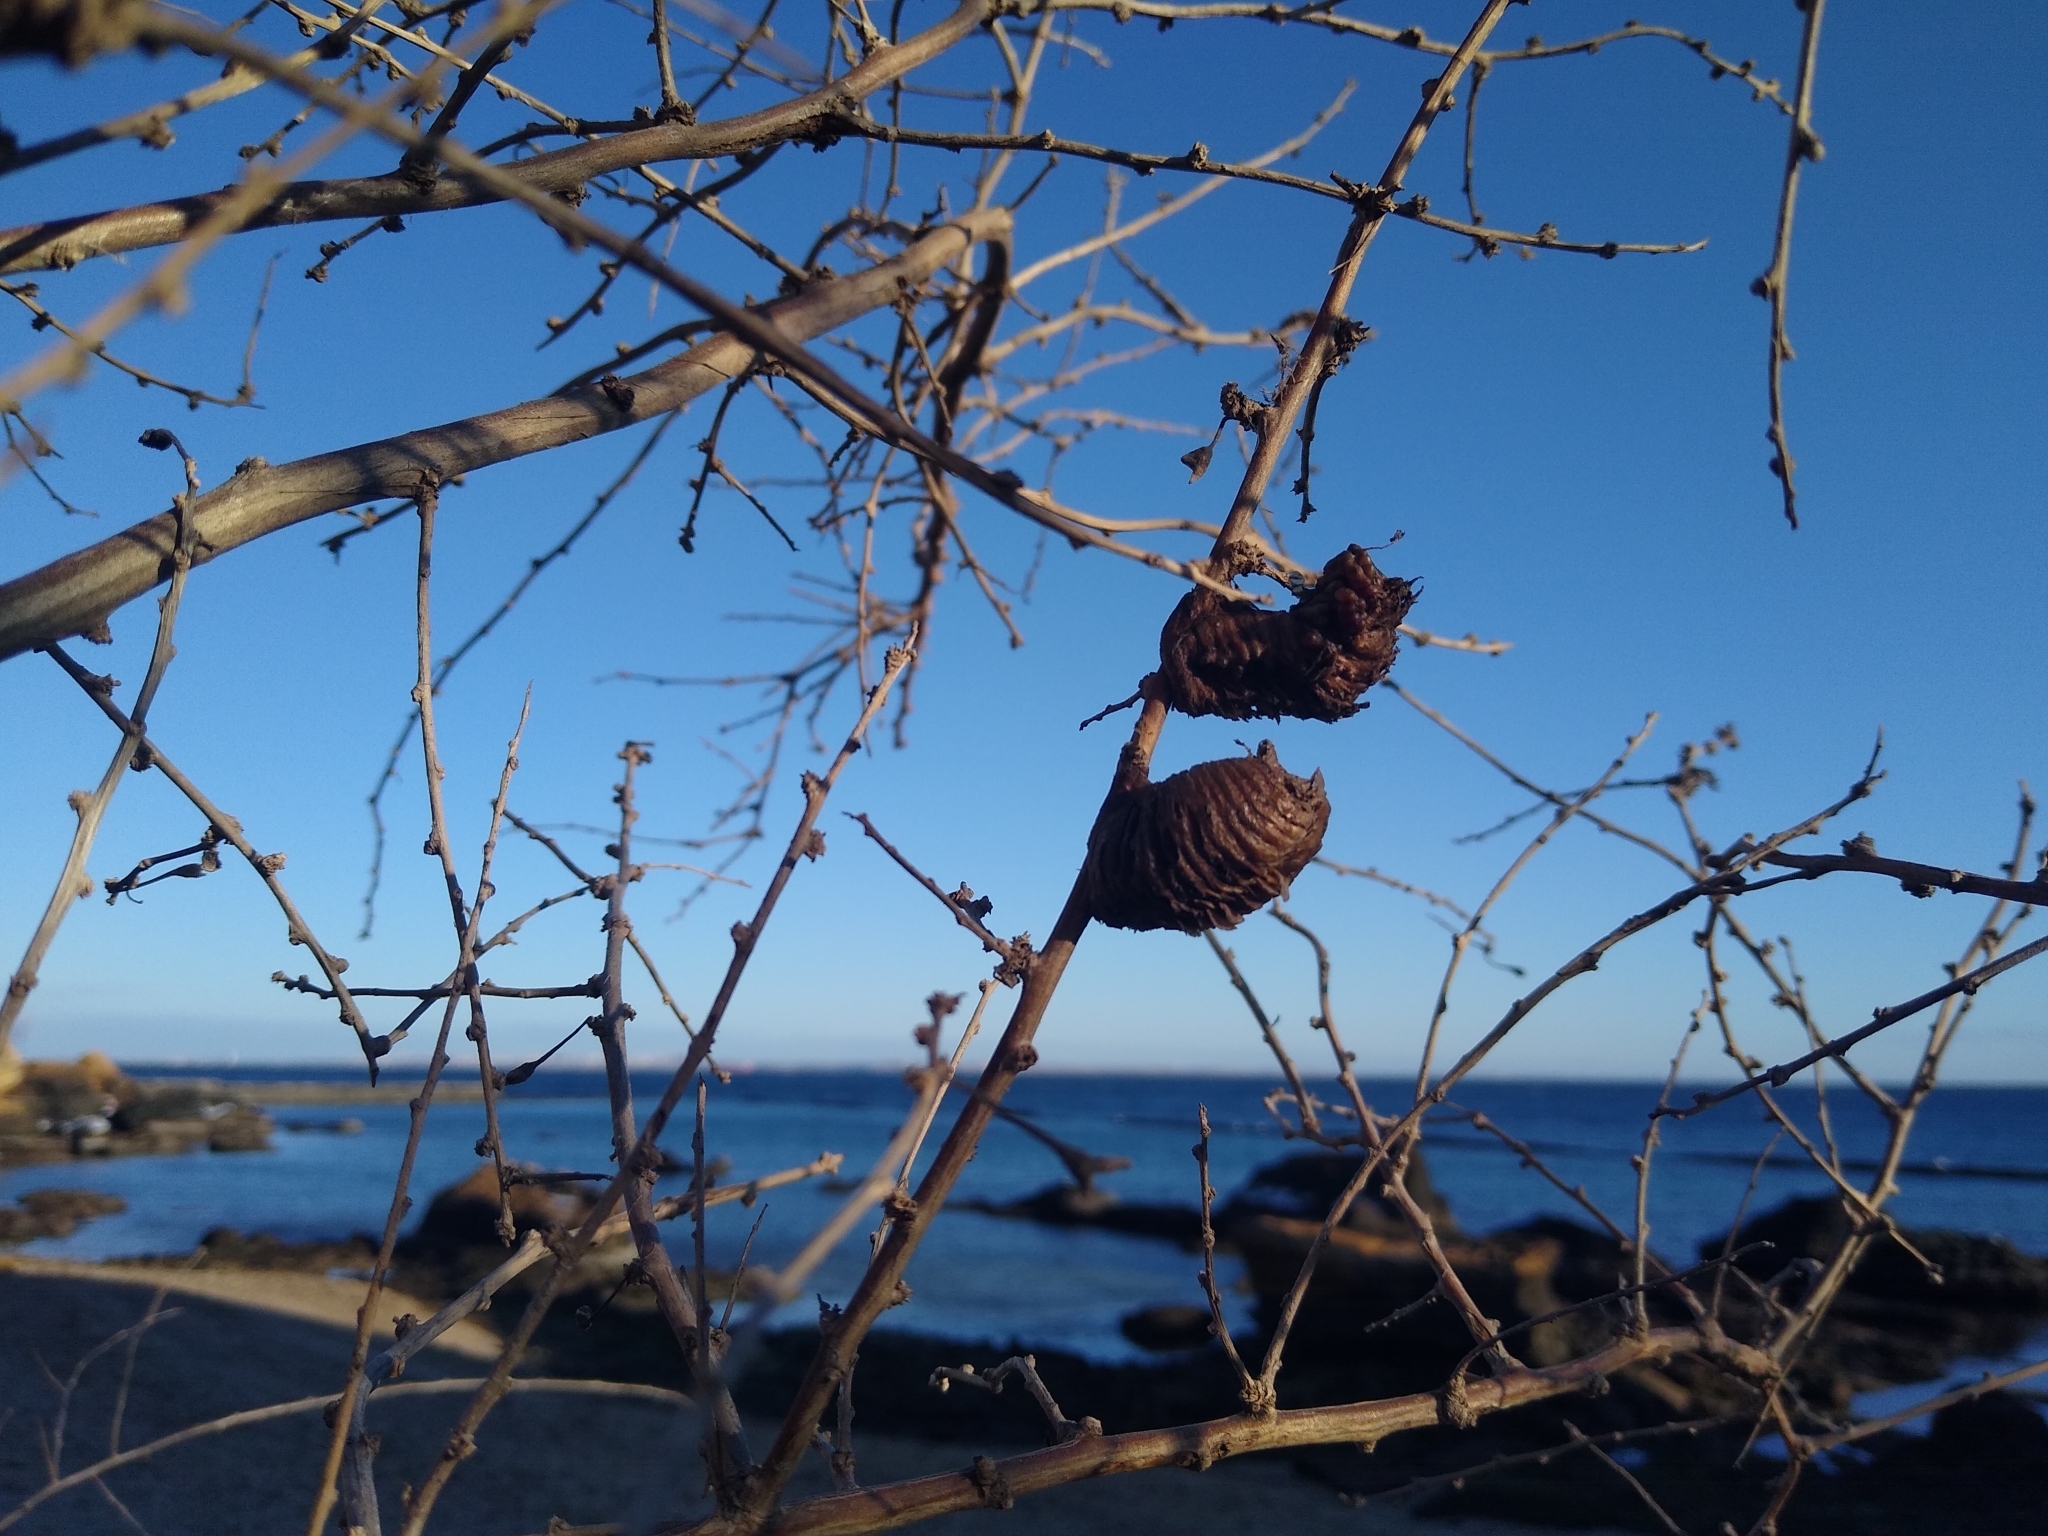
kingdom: Animalia
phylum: Arthropoda
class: Insecta
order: Mantodea
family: Mantidae
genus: Hierodula
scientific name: Hierodula transcaucasica
